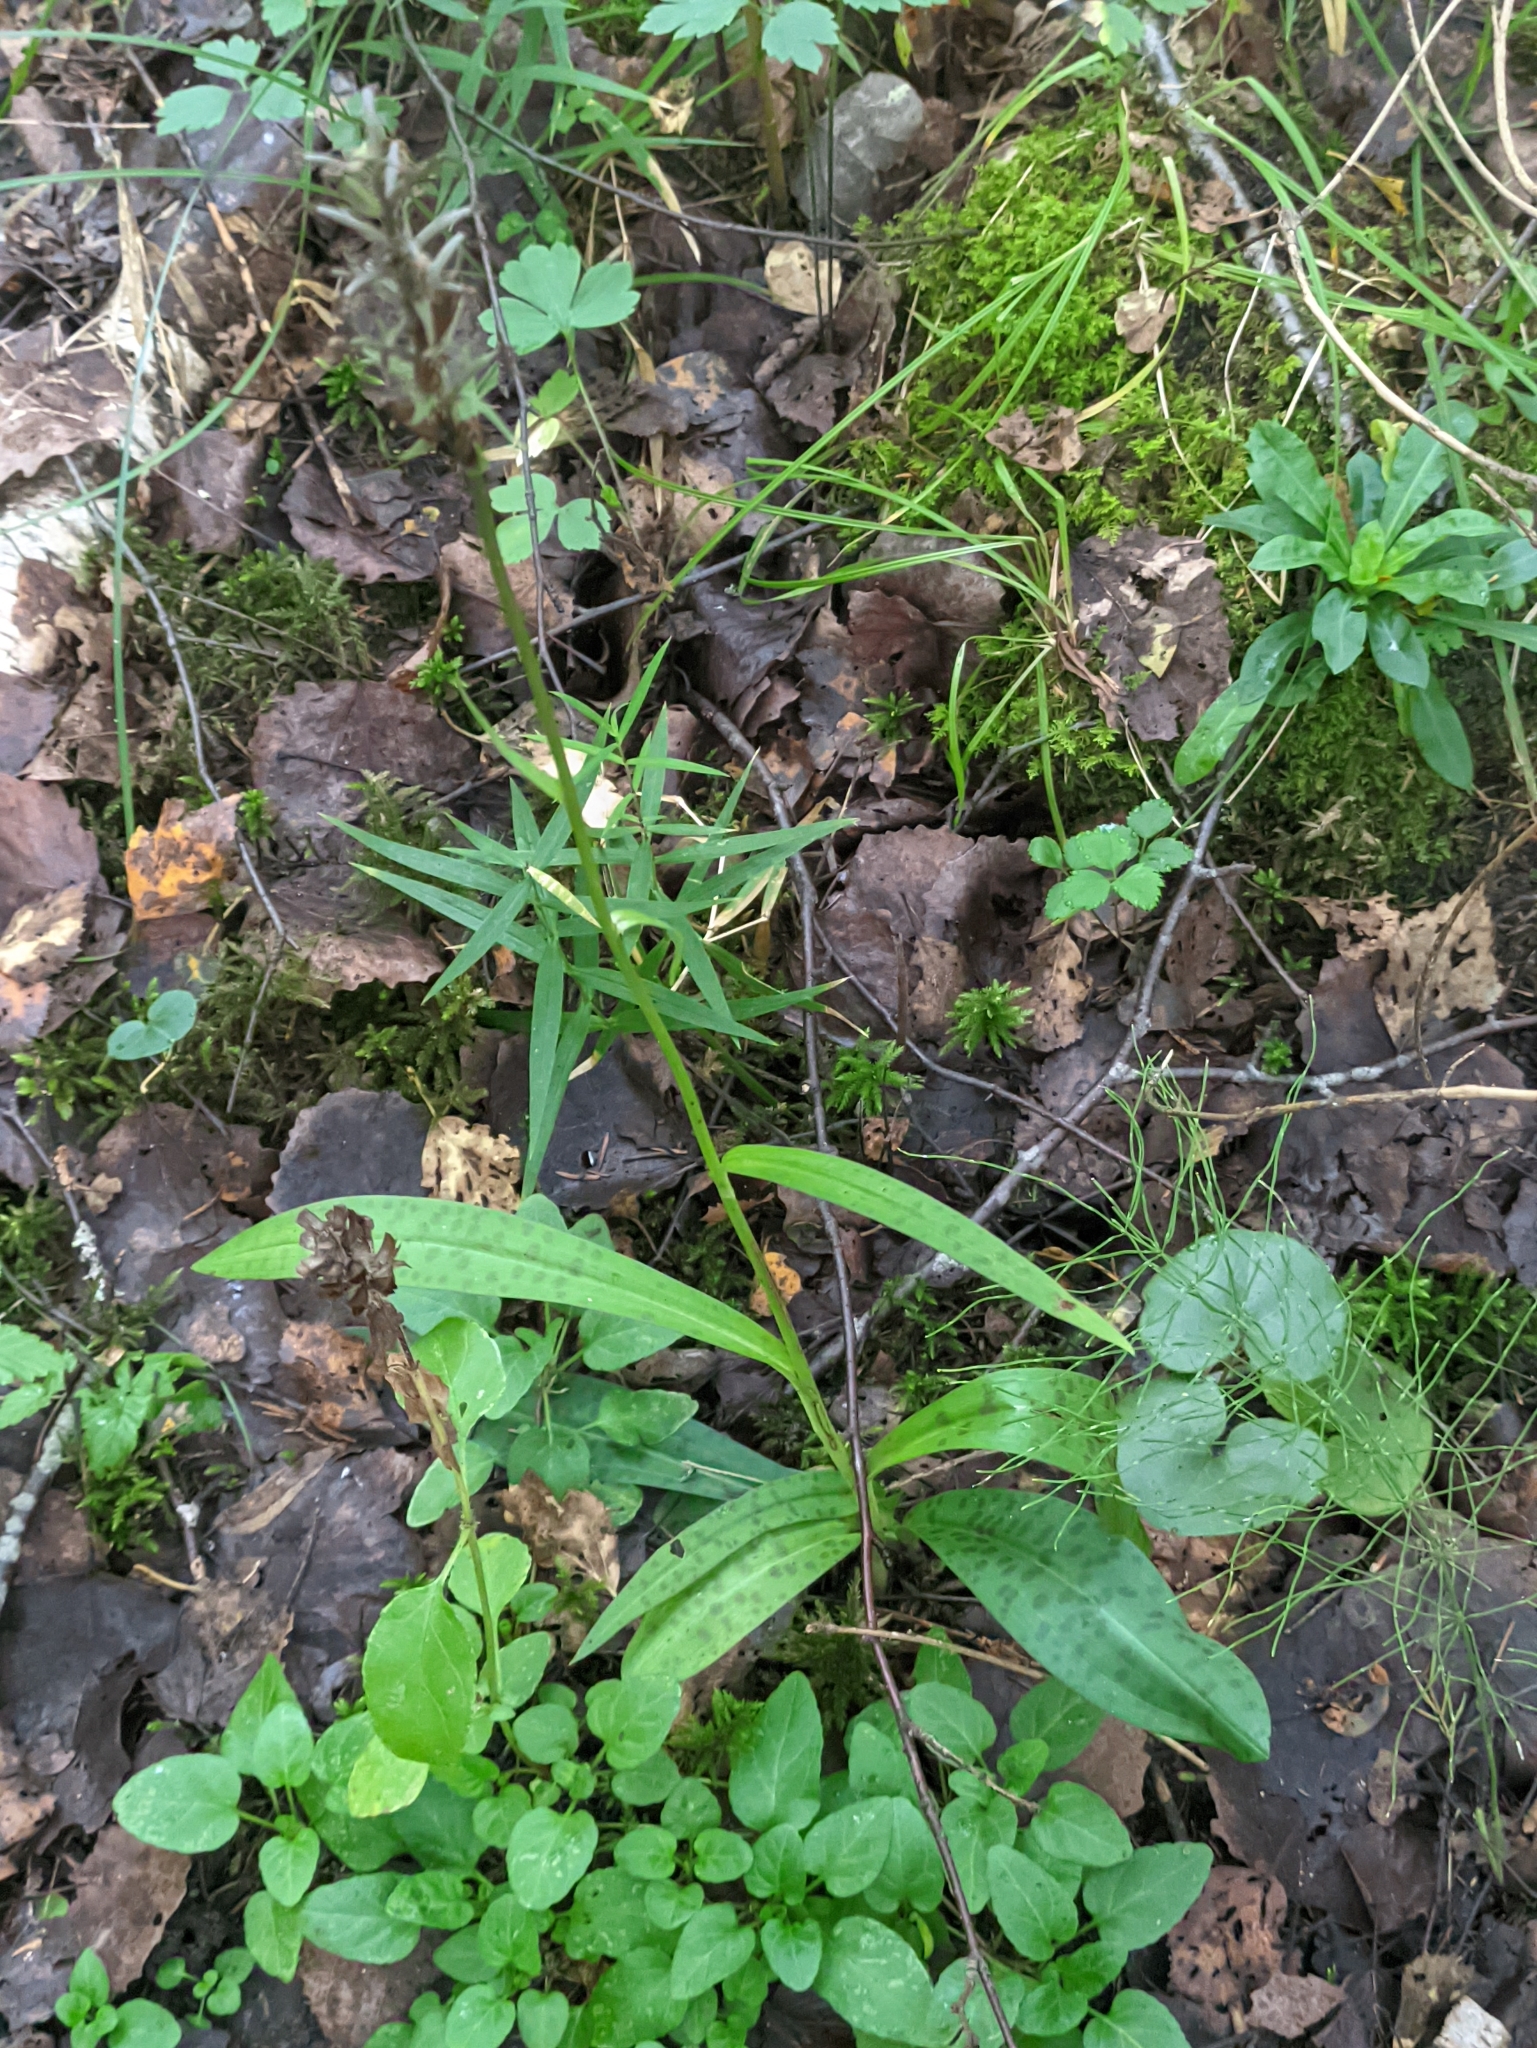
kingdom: Plantae
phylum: Tracheophyta
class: Liliopsida
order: Asparagales
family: Orchidaceae
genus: Dactylorhiza
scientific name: Dactylorhiza maculata
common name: Heath spotted-orchid
